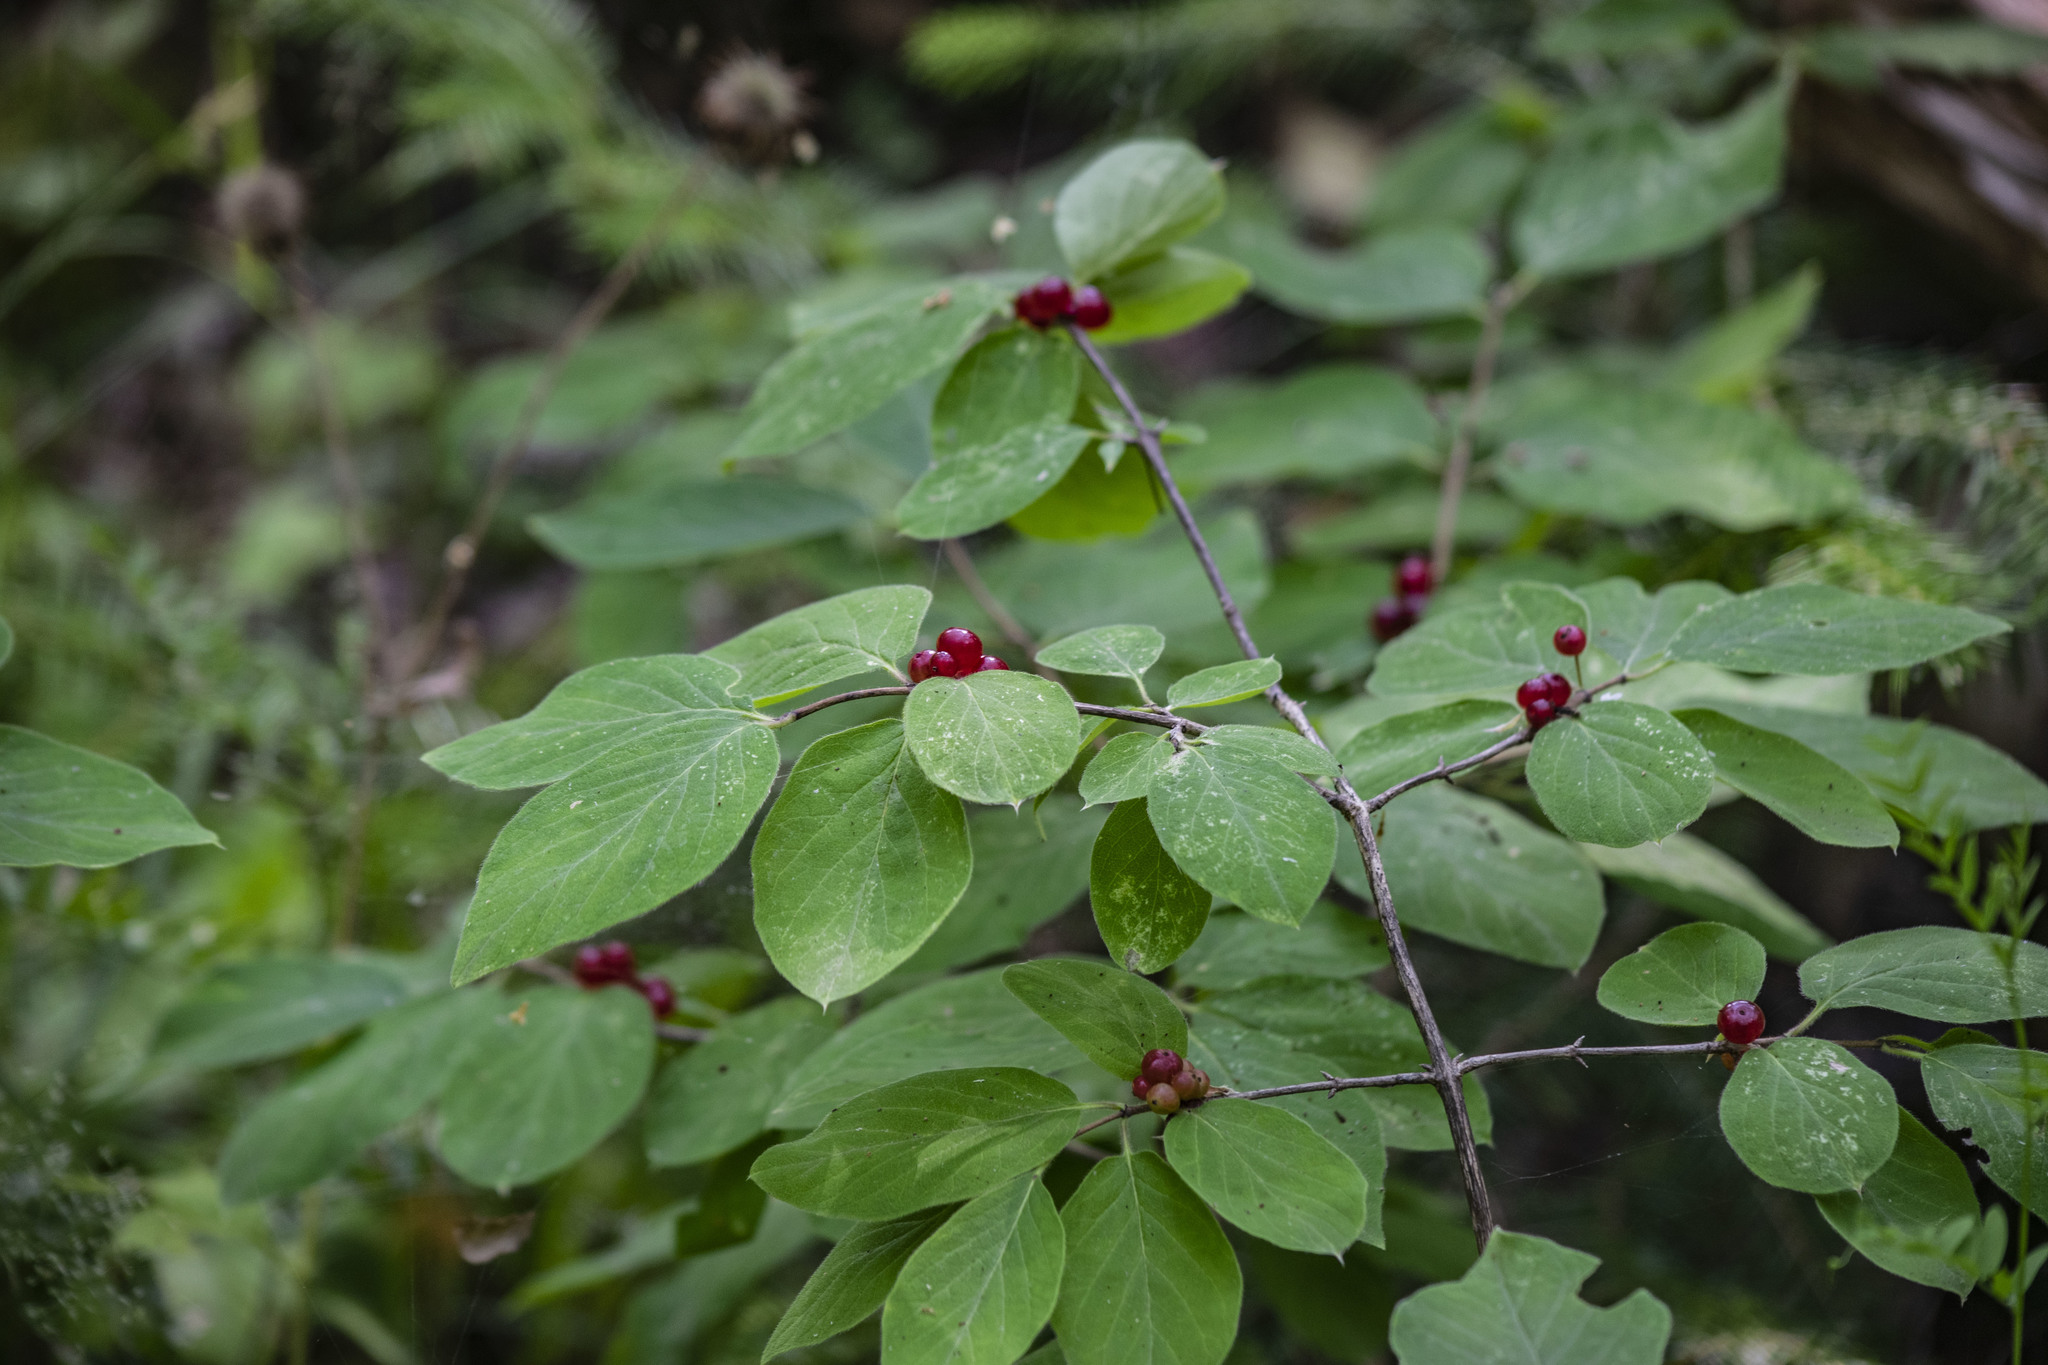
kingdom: Plantae
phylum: Tracheophyta
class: Magnoliopsida
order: Dipsacales
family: Caprifoliaceae
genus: Lonicera
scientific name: Lonicera xylosteum
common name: Fly honeysuckle
